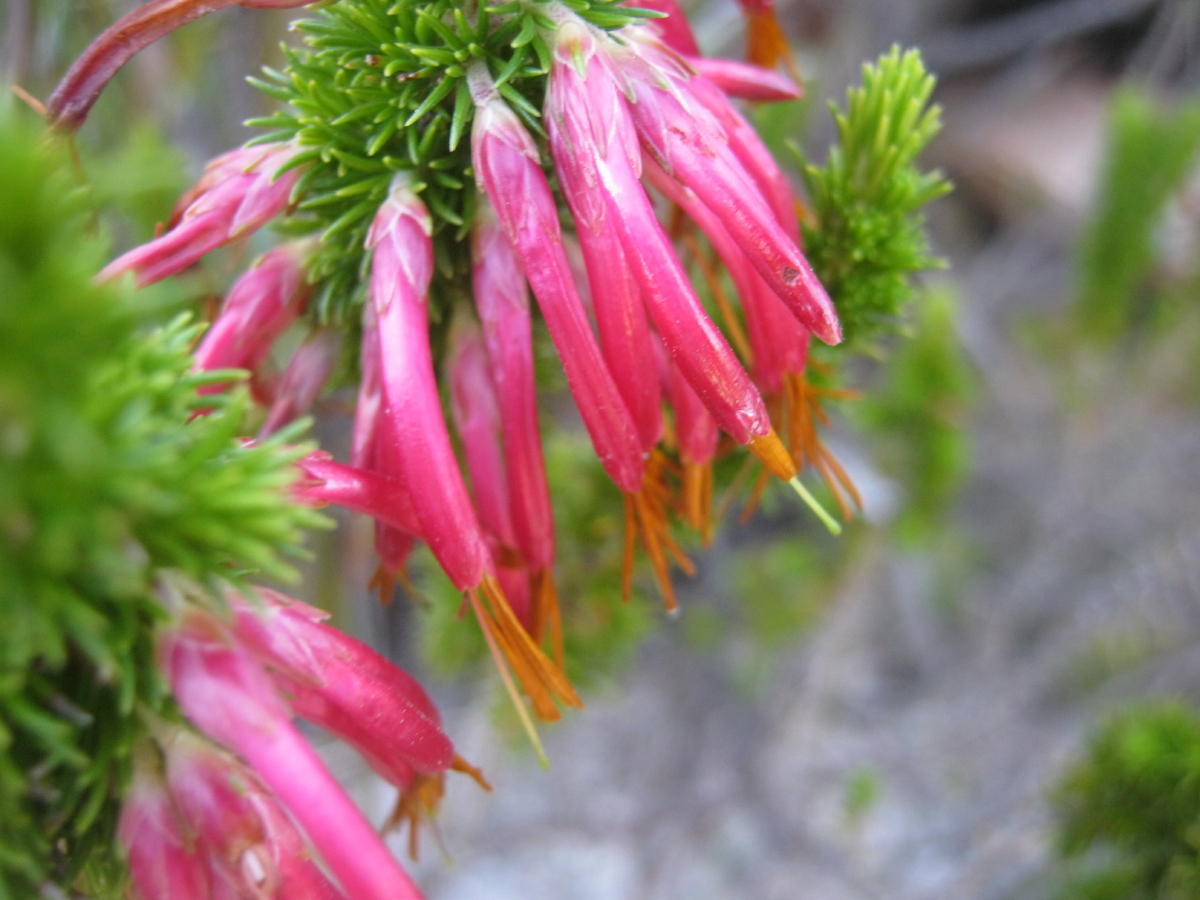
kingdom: Plantae
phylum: Tracheophyta
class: Magnoliopsida
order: Ericales
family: Ericaceae
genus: Erica
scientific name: Erica coccinea
